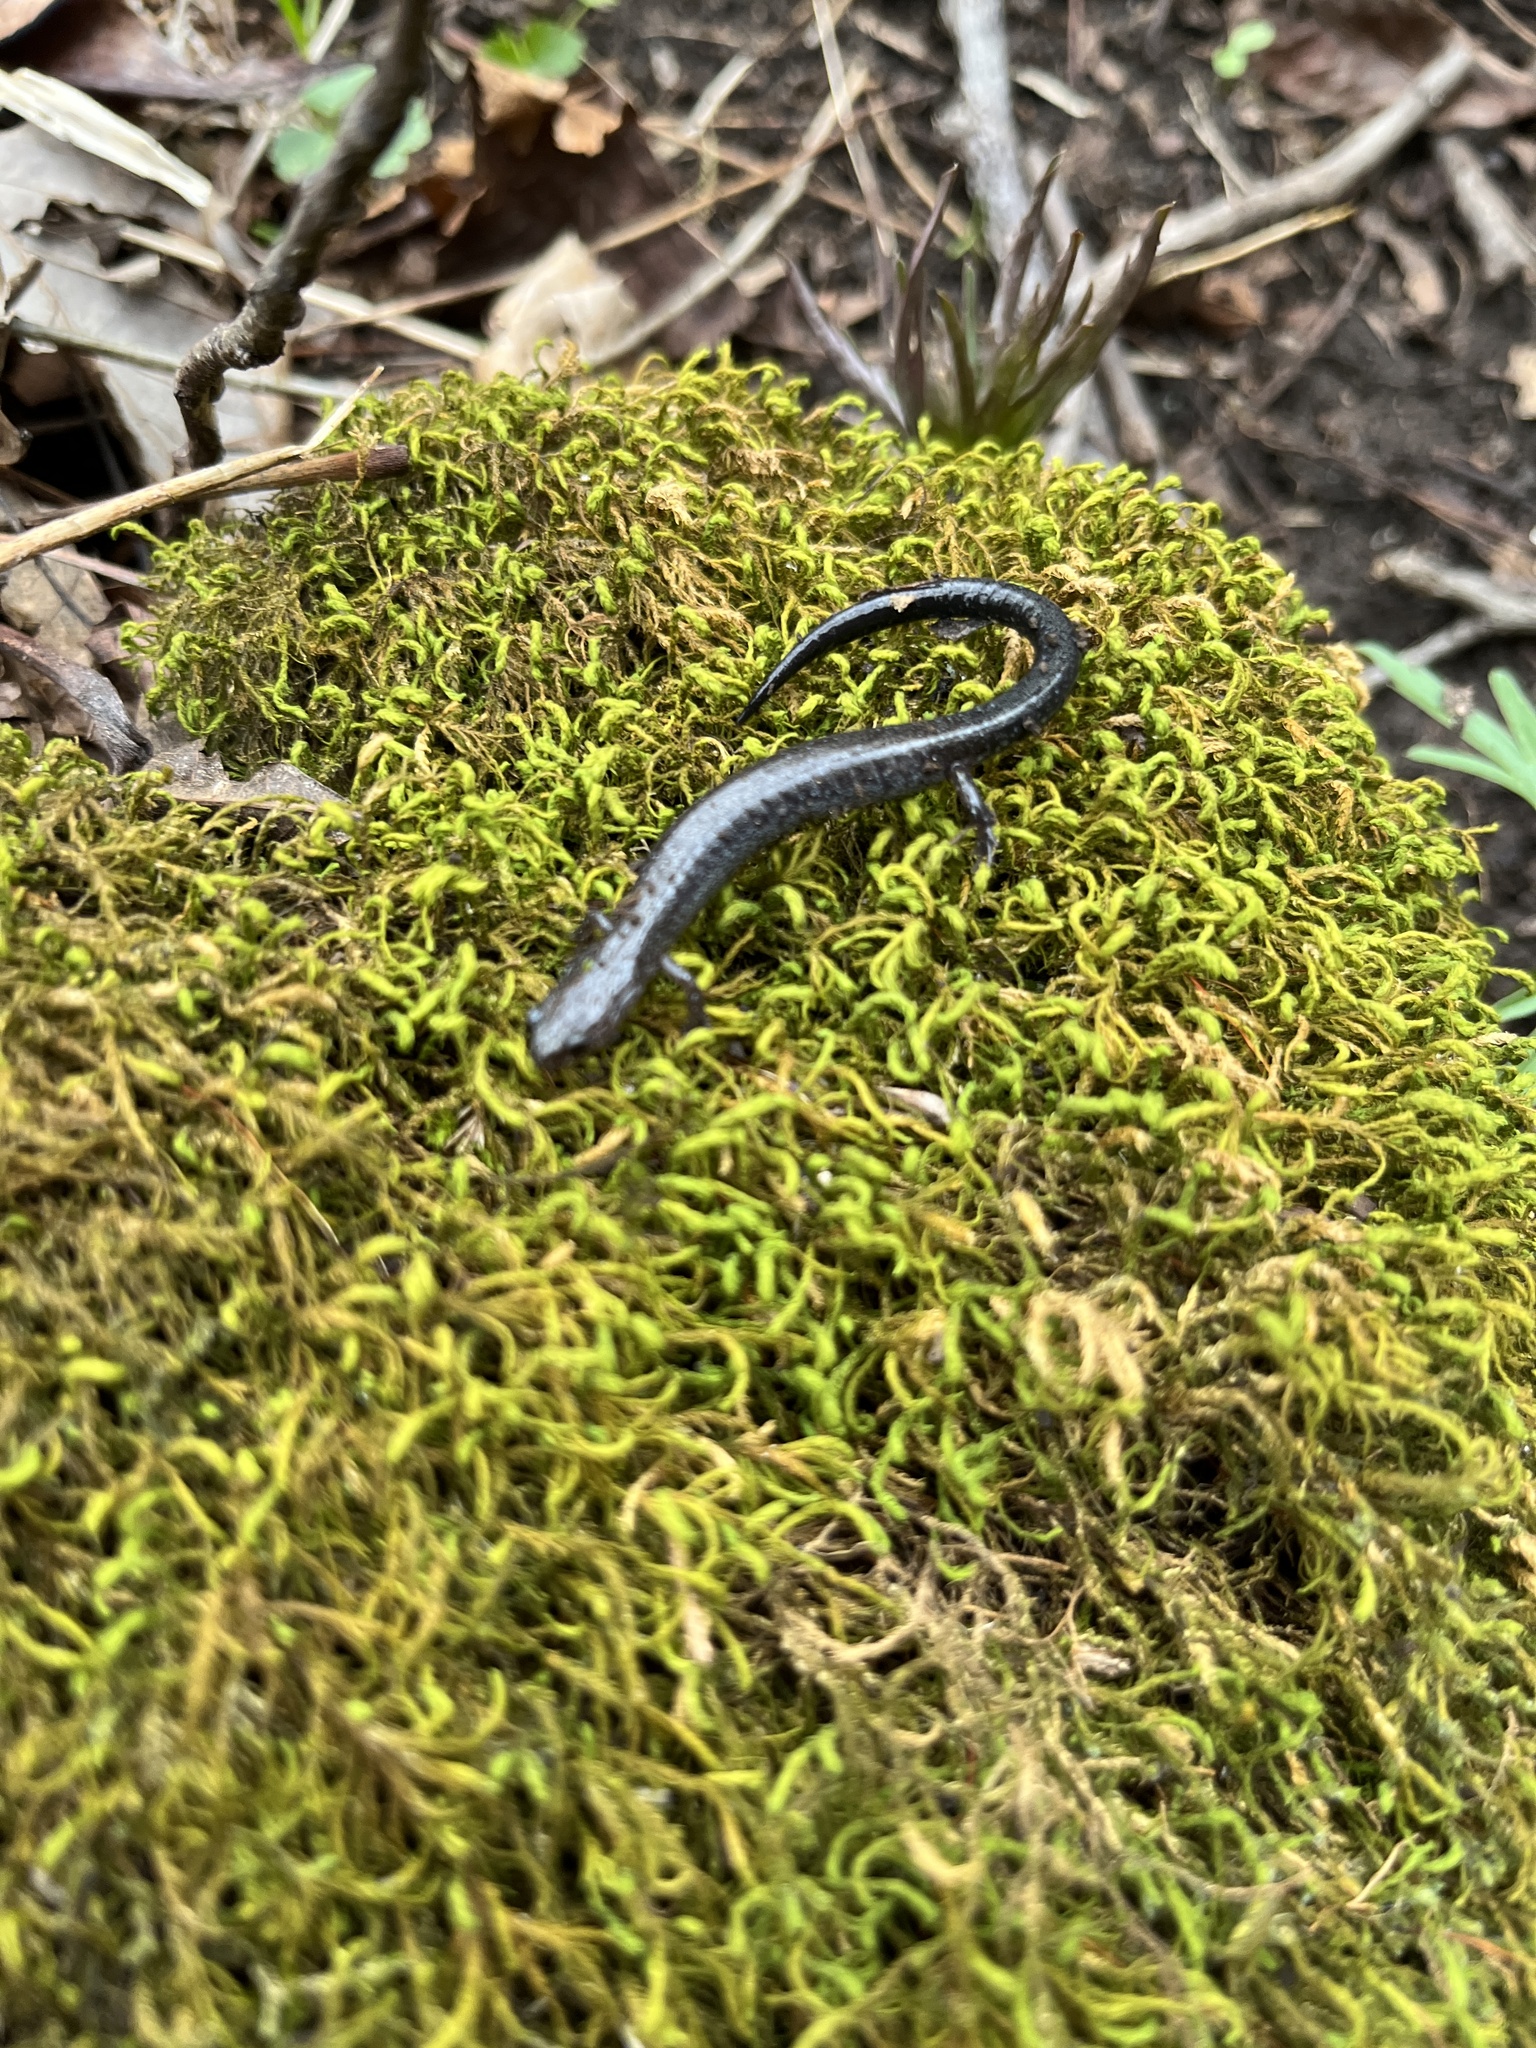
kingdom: Animalia
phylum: Chordata
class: Amphibia
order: Caudata
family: Plethodontidae
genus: Plethodon
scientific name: Plethodon electromorphus
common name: Northern ravine salamander
